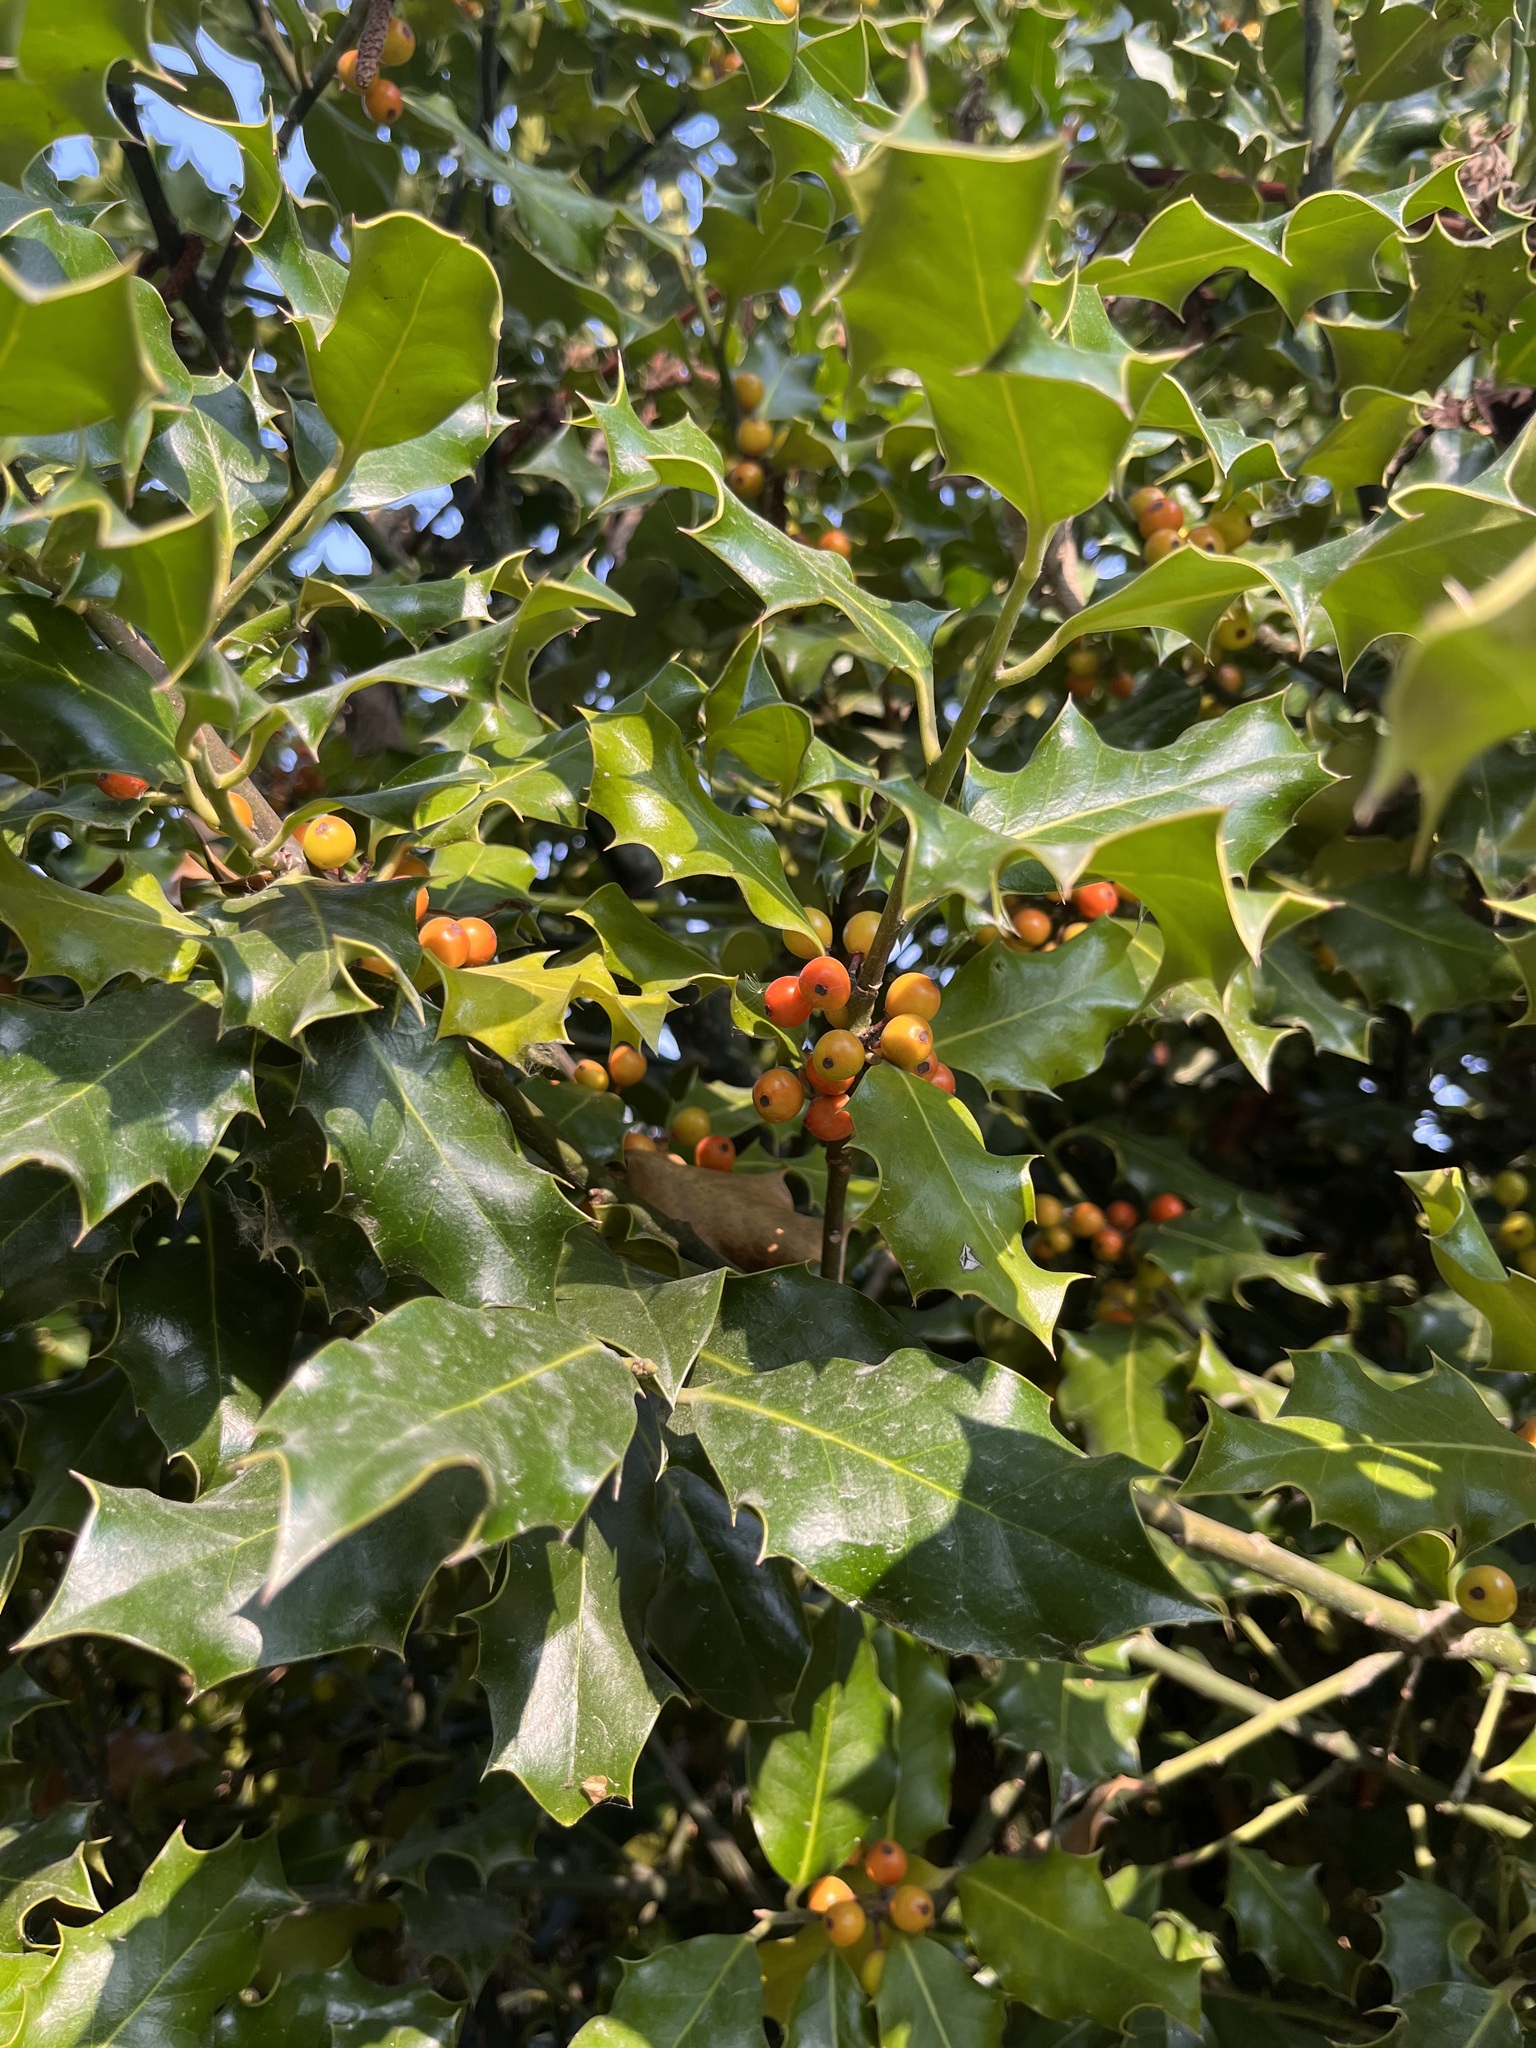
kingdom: Plantae
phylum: Tracheophyta
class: Magnoliopsida
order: Aquifoliales
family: Aquifoliaceae
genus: Ilex
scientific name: Ilex aquifolium
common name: English holly
